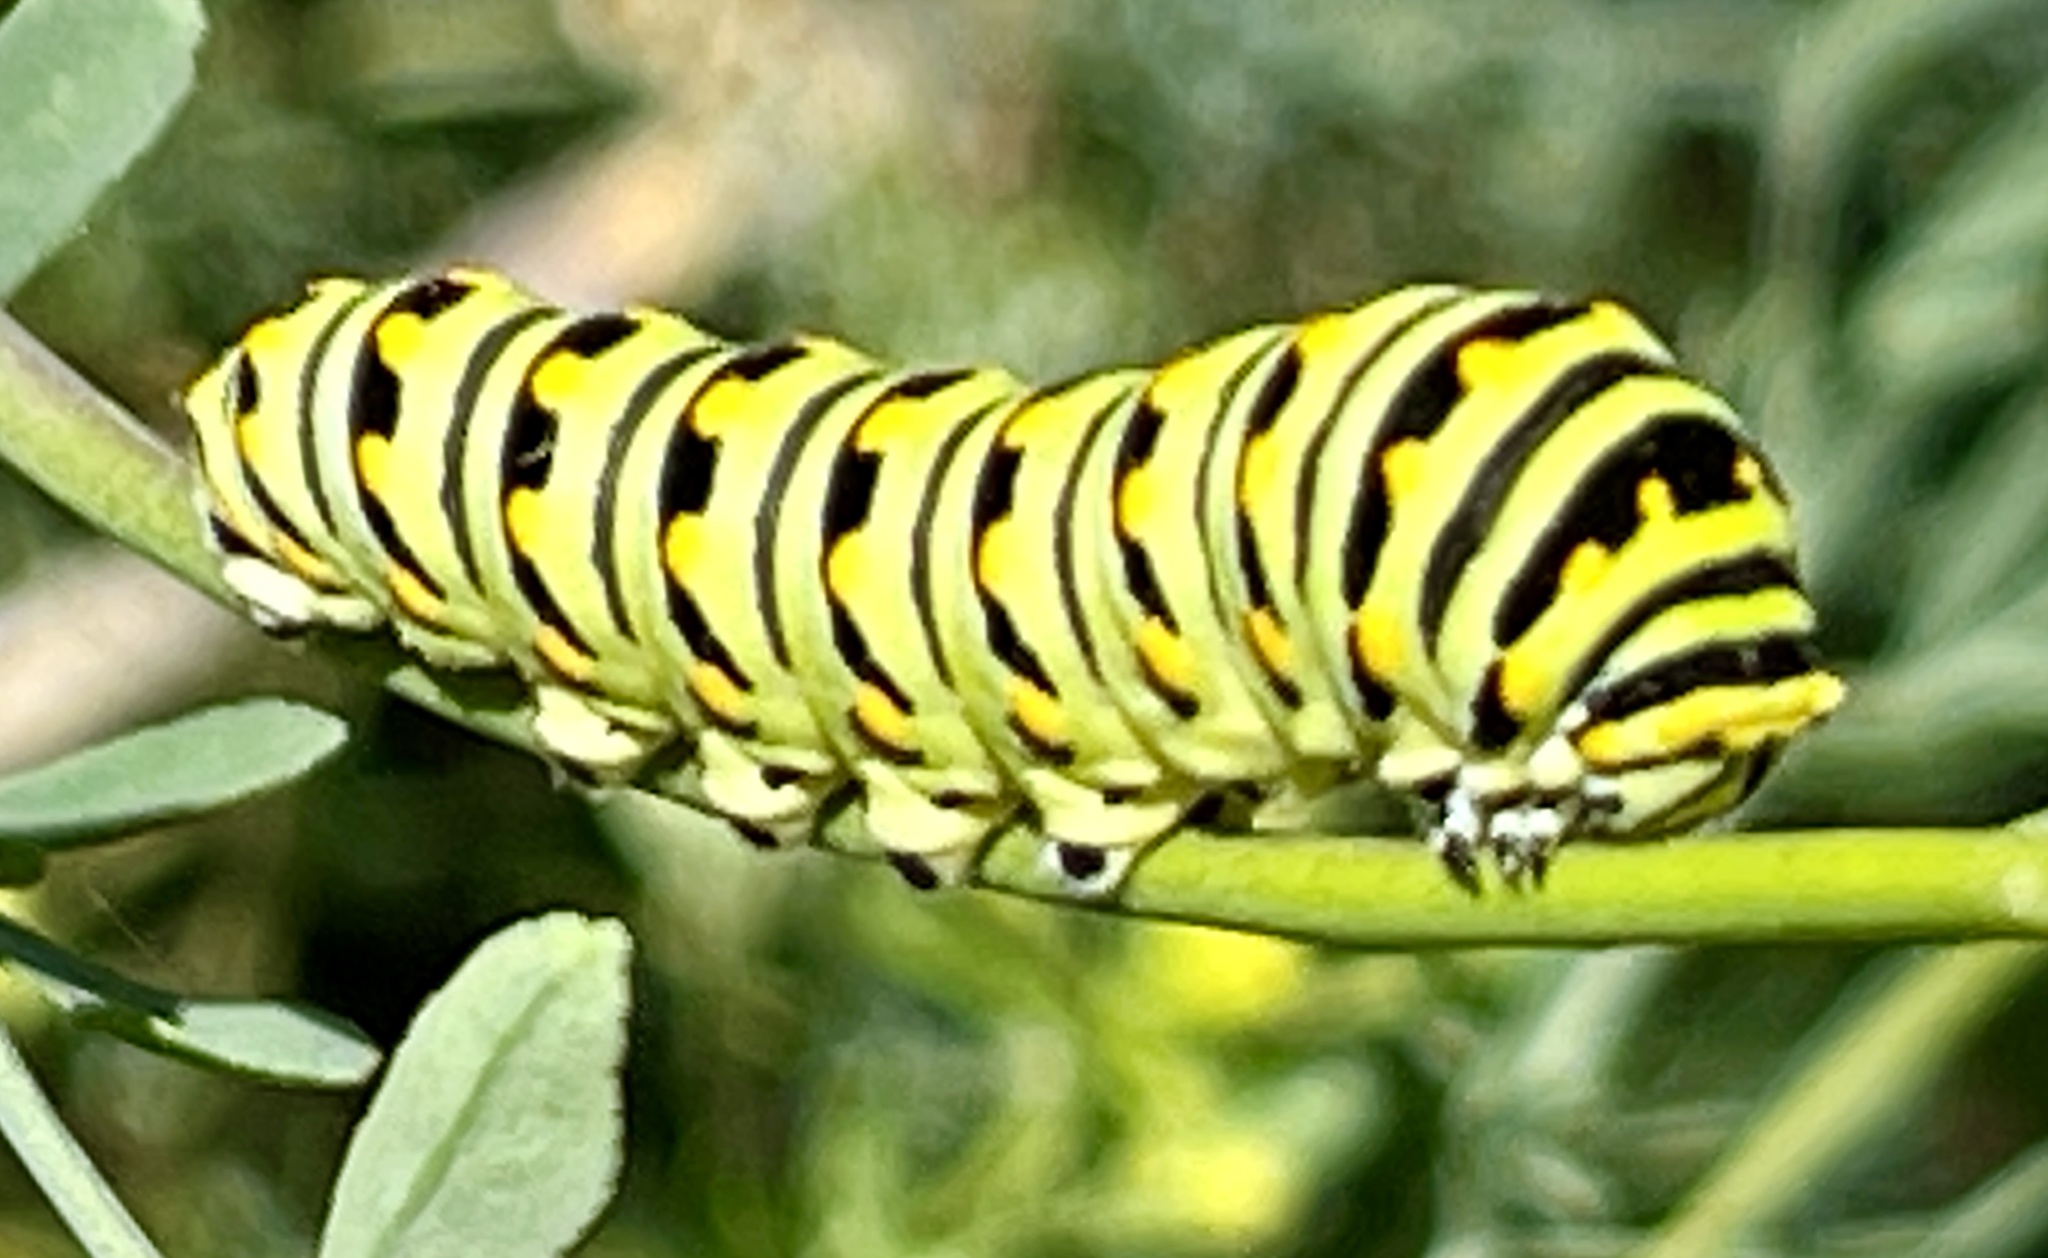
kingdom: Animalia
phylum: Arthropoda
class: Insecta
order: Lepidoptera
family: Papilionidae
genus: Papilio
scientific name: Papilio polyxenes
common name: Black swallowtail
